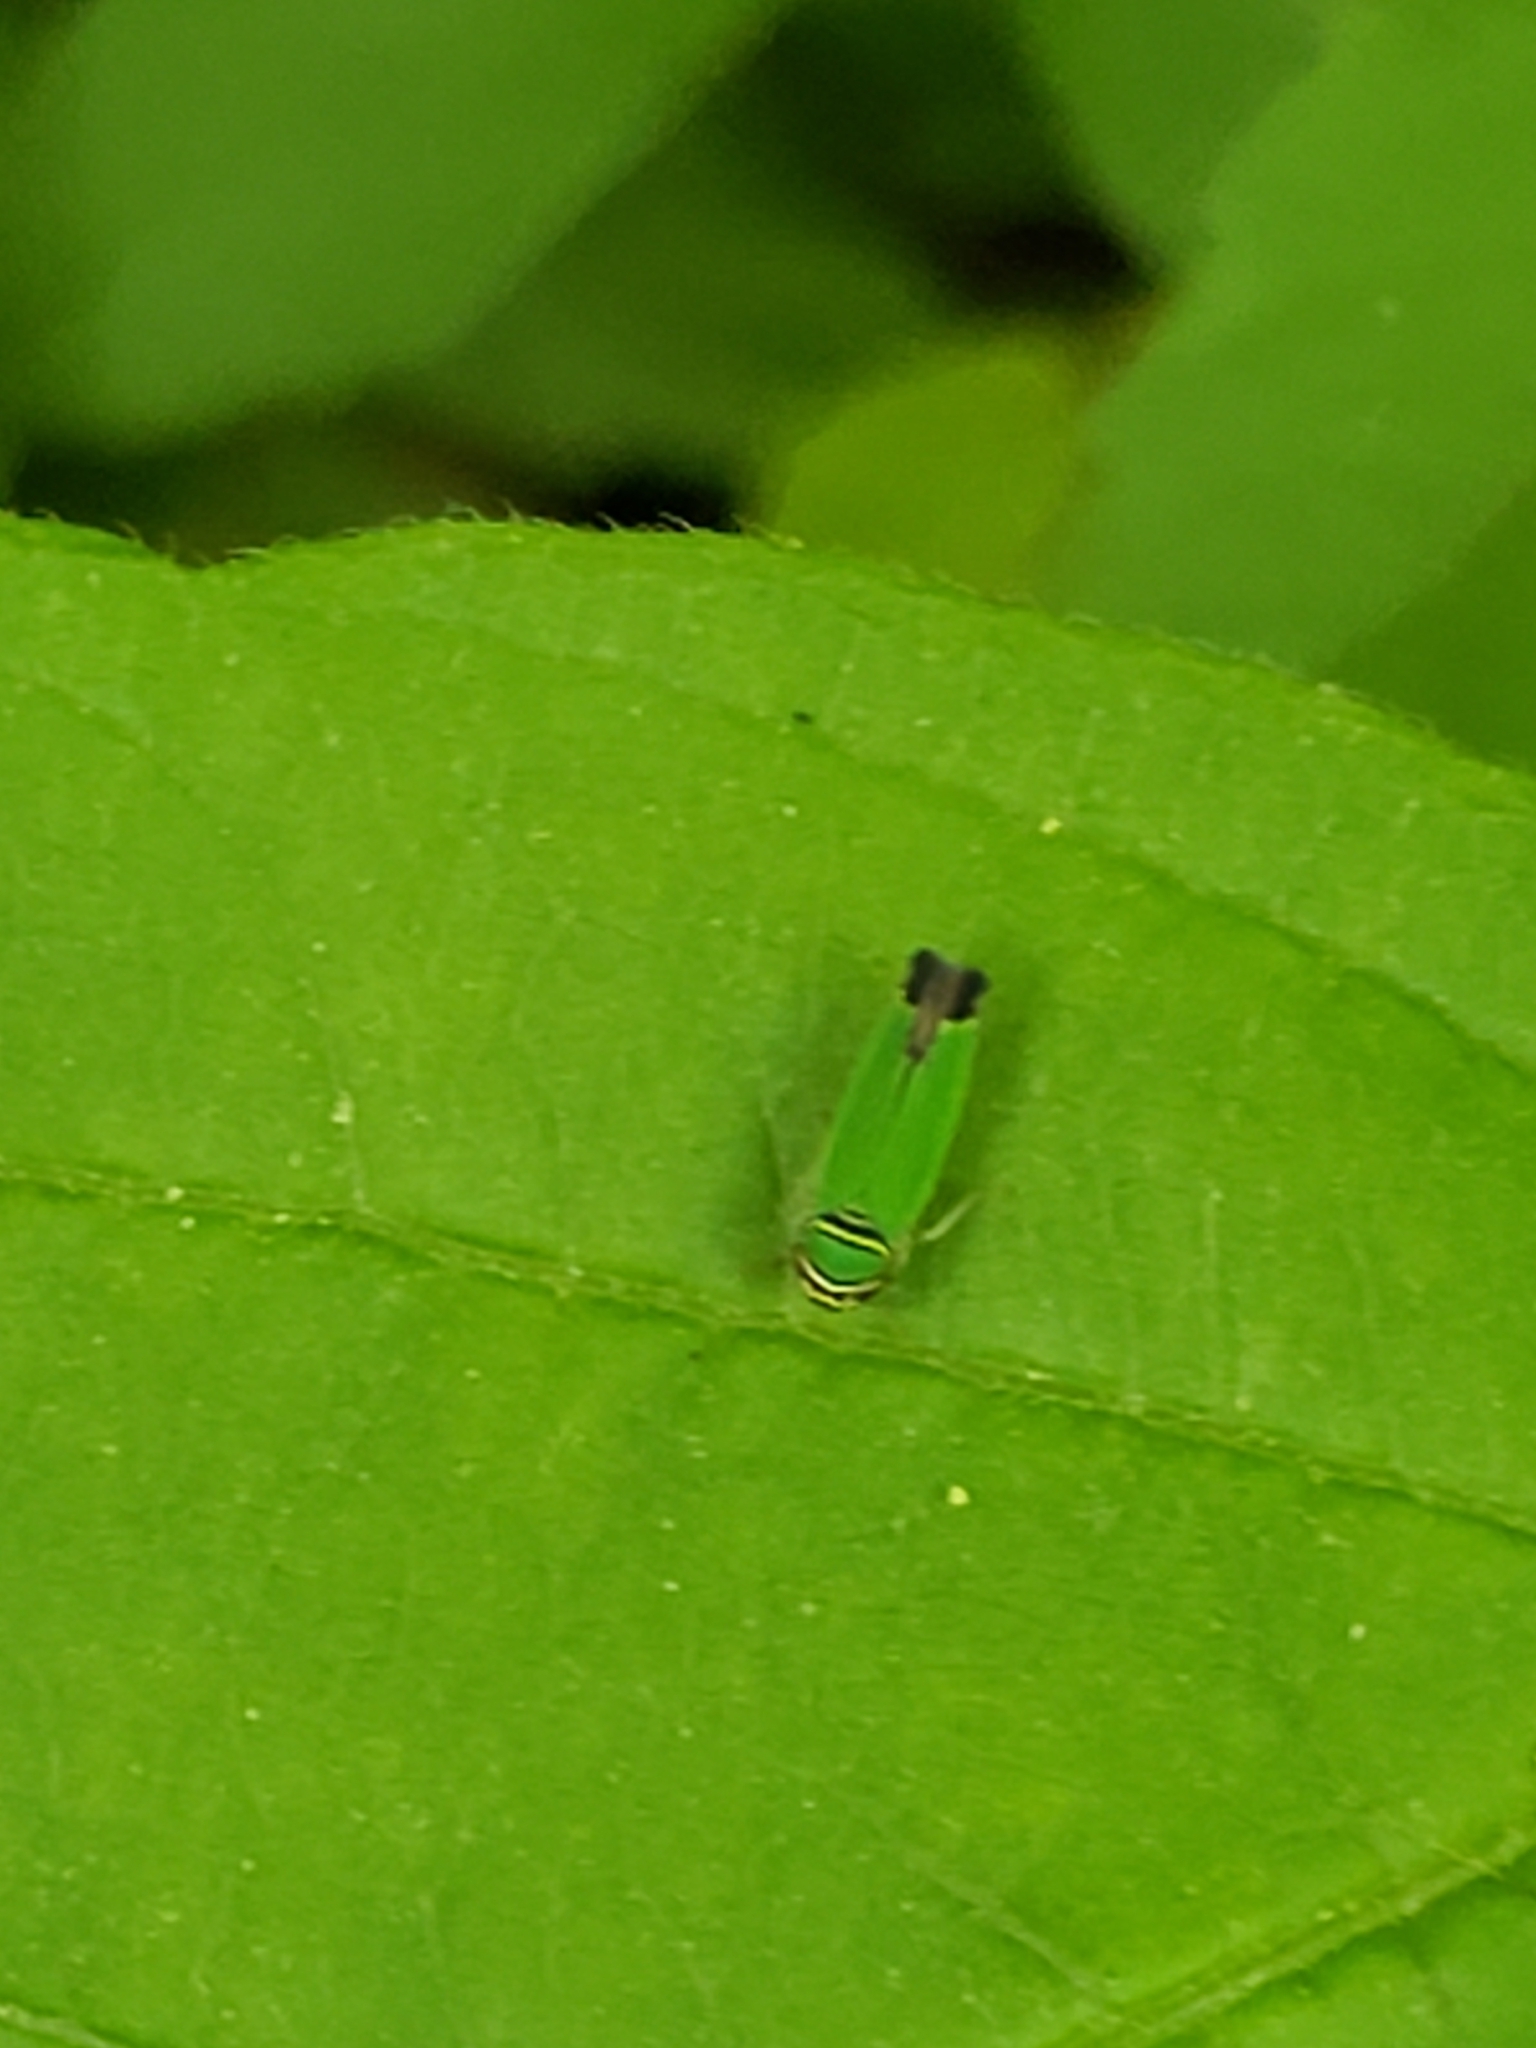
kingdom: Animalia
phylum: Arthropoda
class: Insecta
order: Hemiptera
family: Cicadellidae
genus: Tylozygus
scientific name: Tylozygus geometricus
